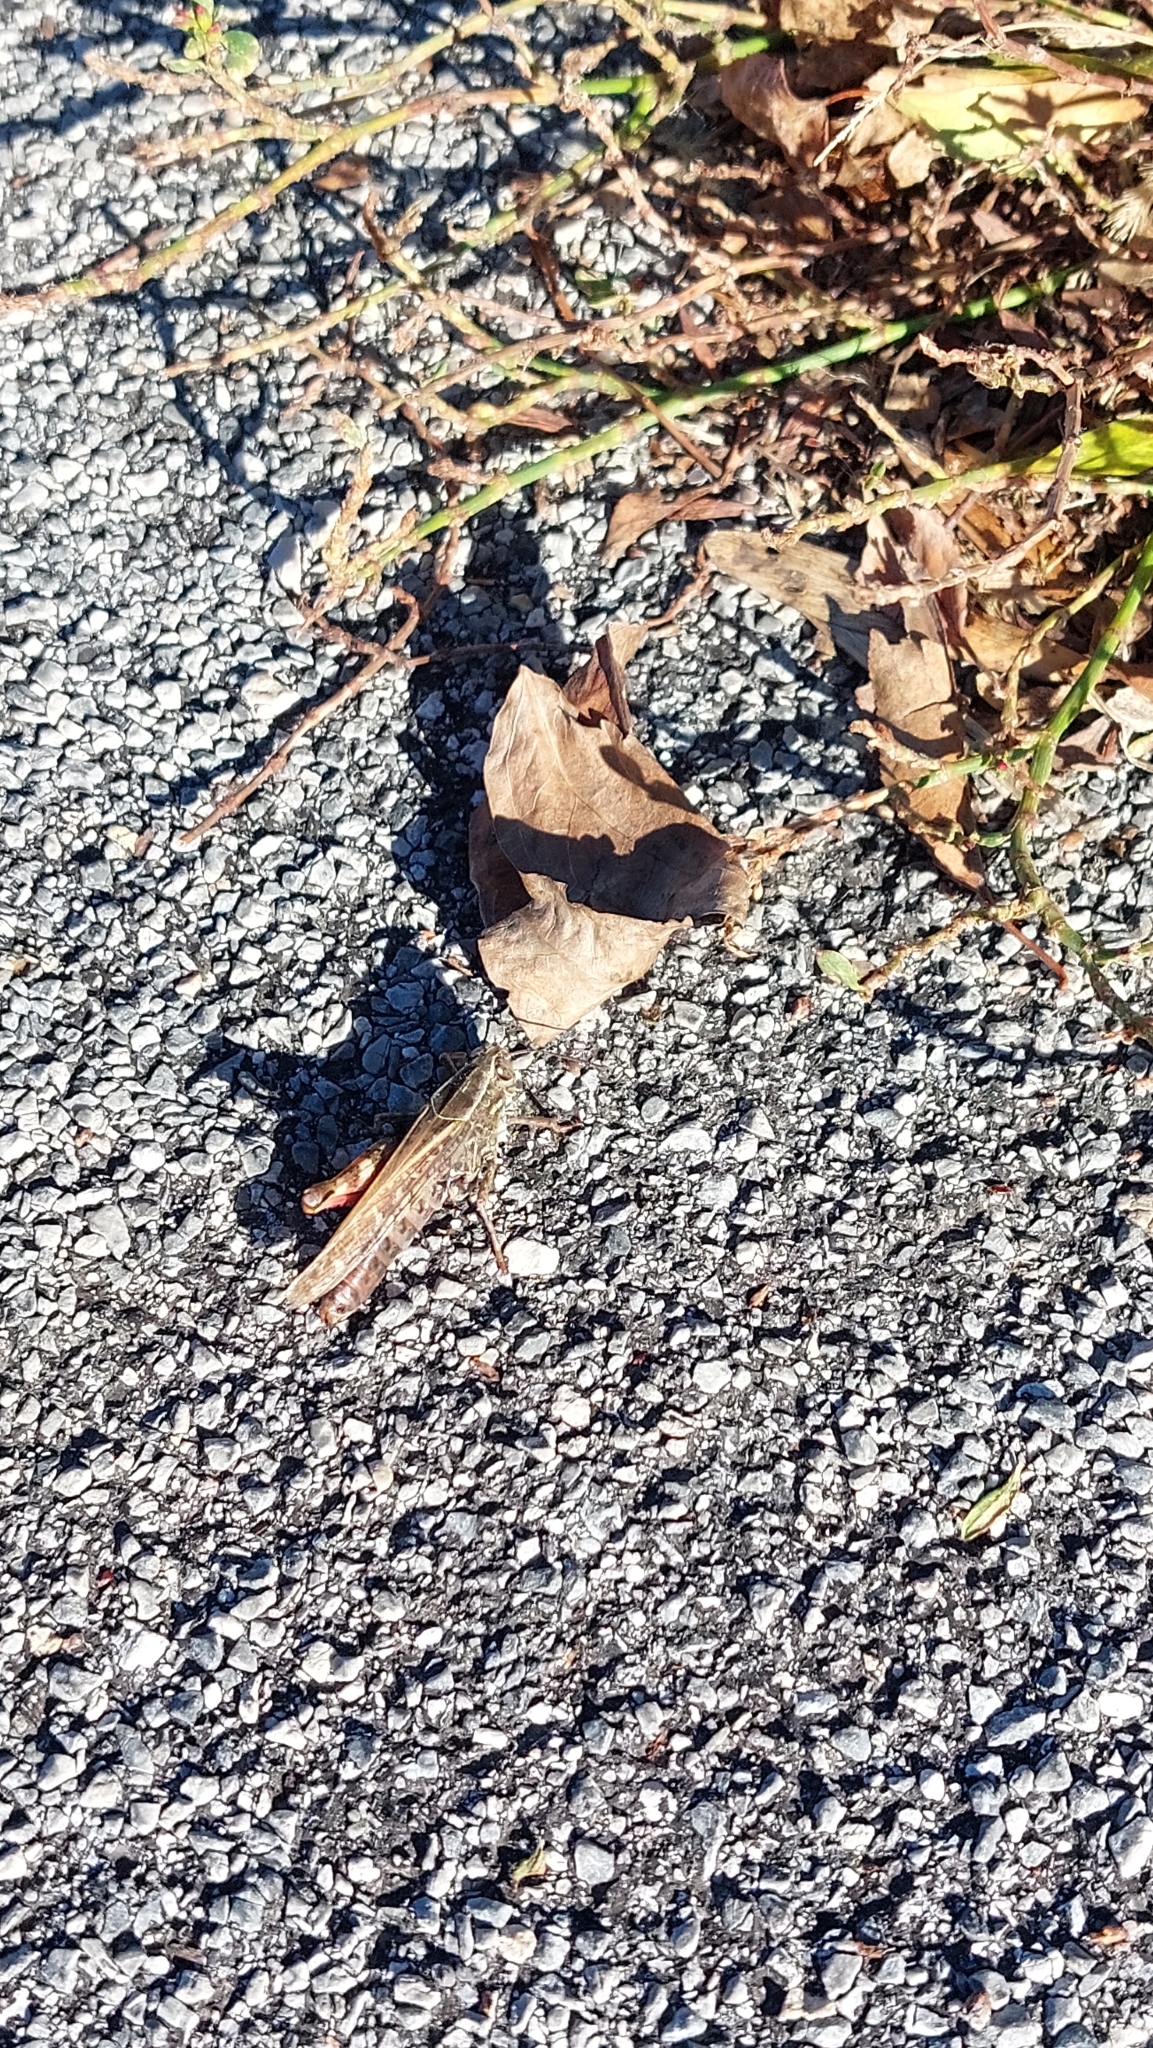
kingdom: Animalia
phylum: Arthropoda
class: Insecta
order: Orthoptera
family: Acrididae
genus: Calliptamus
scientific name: Calliptamus italicus
